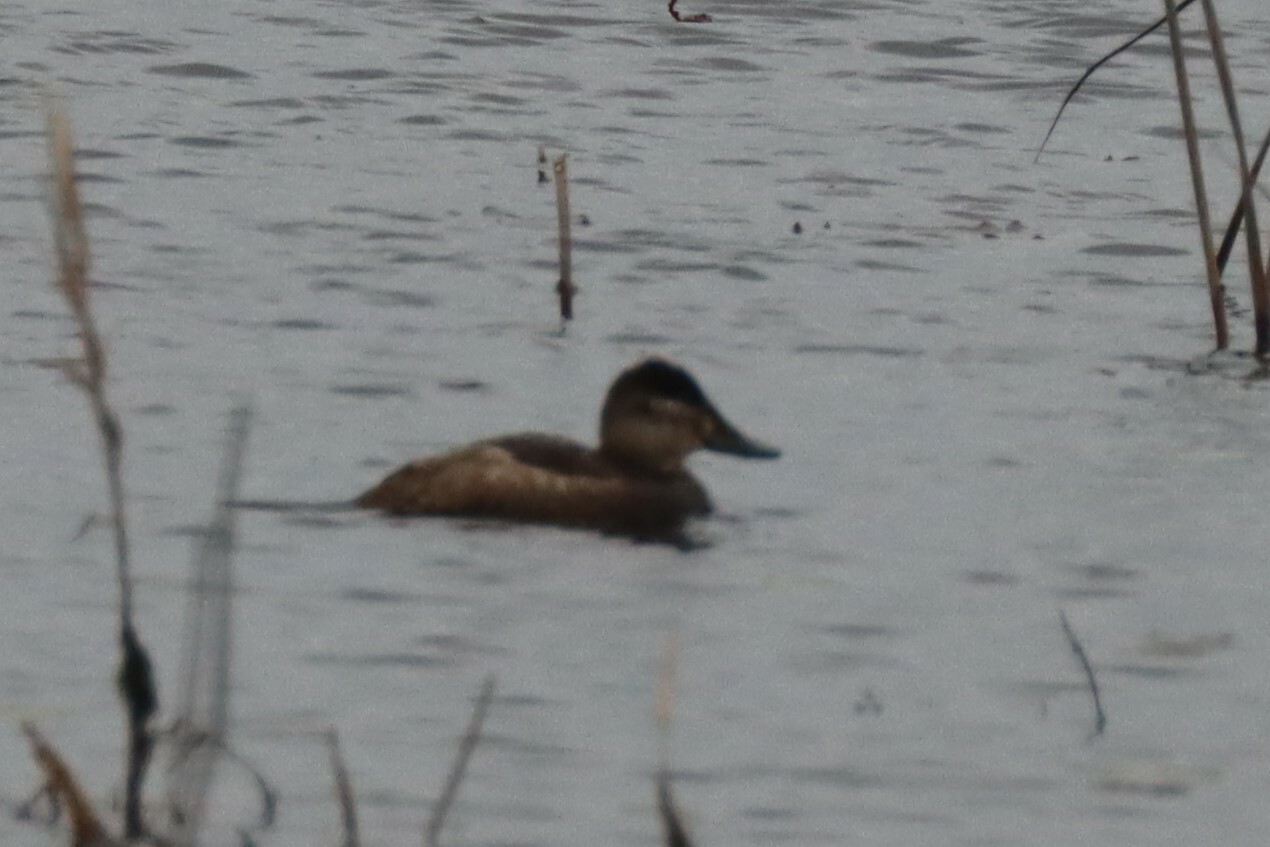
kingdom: Animalia
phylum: Chordata
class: Aves
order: Anseriformes
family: Anatidae
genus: Oxyura
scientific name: Oxyura jamaicensis
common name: Ruddy duck
